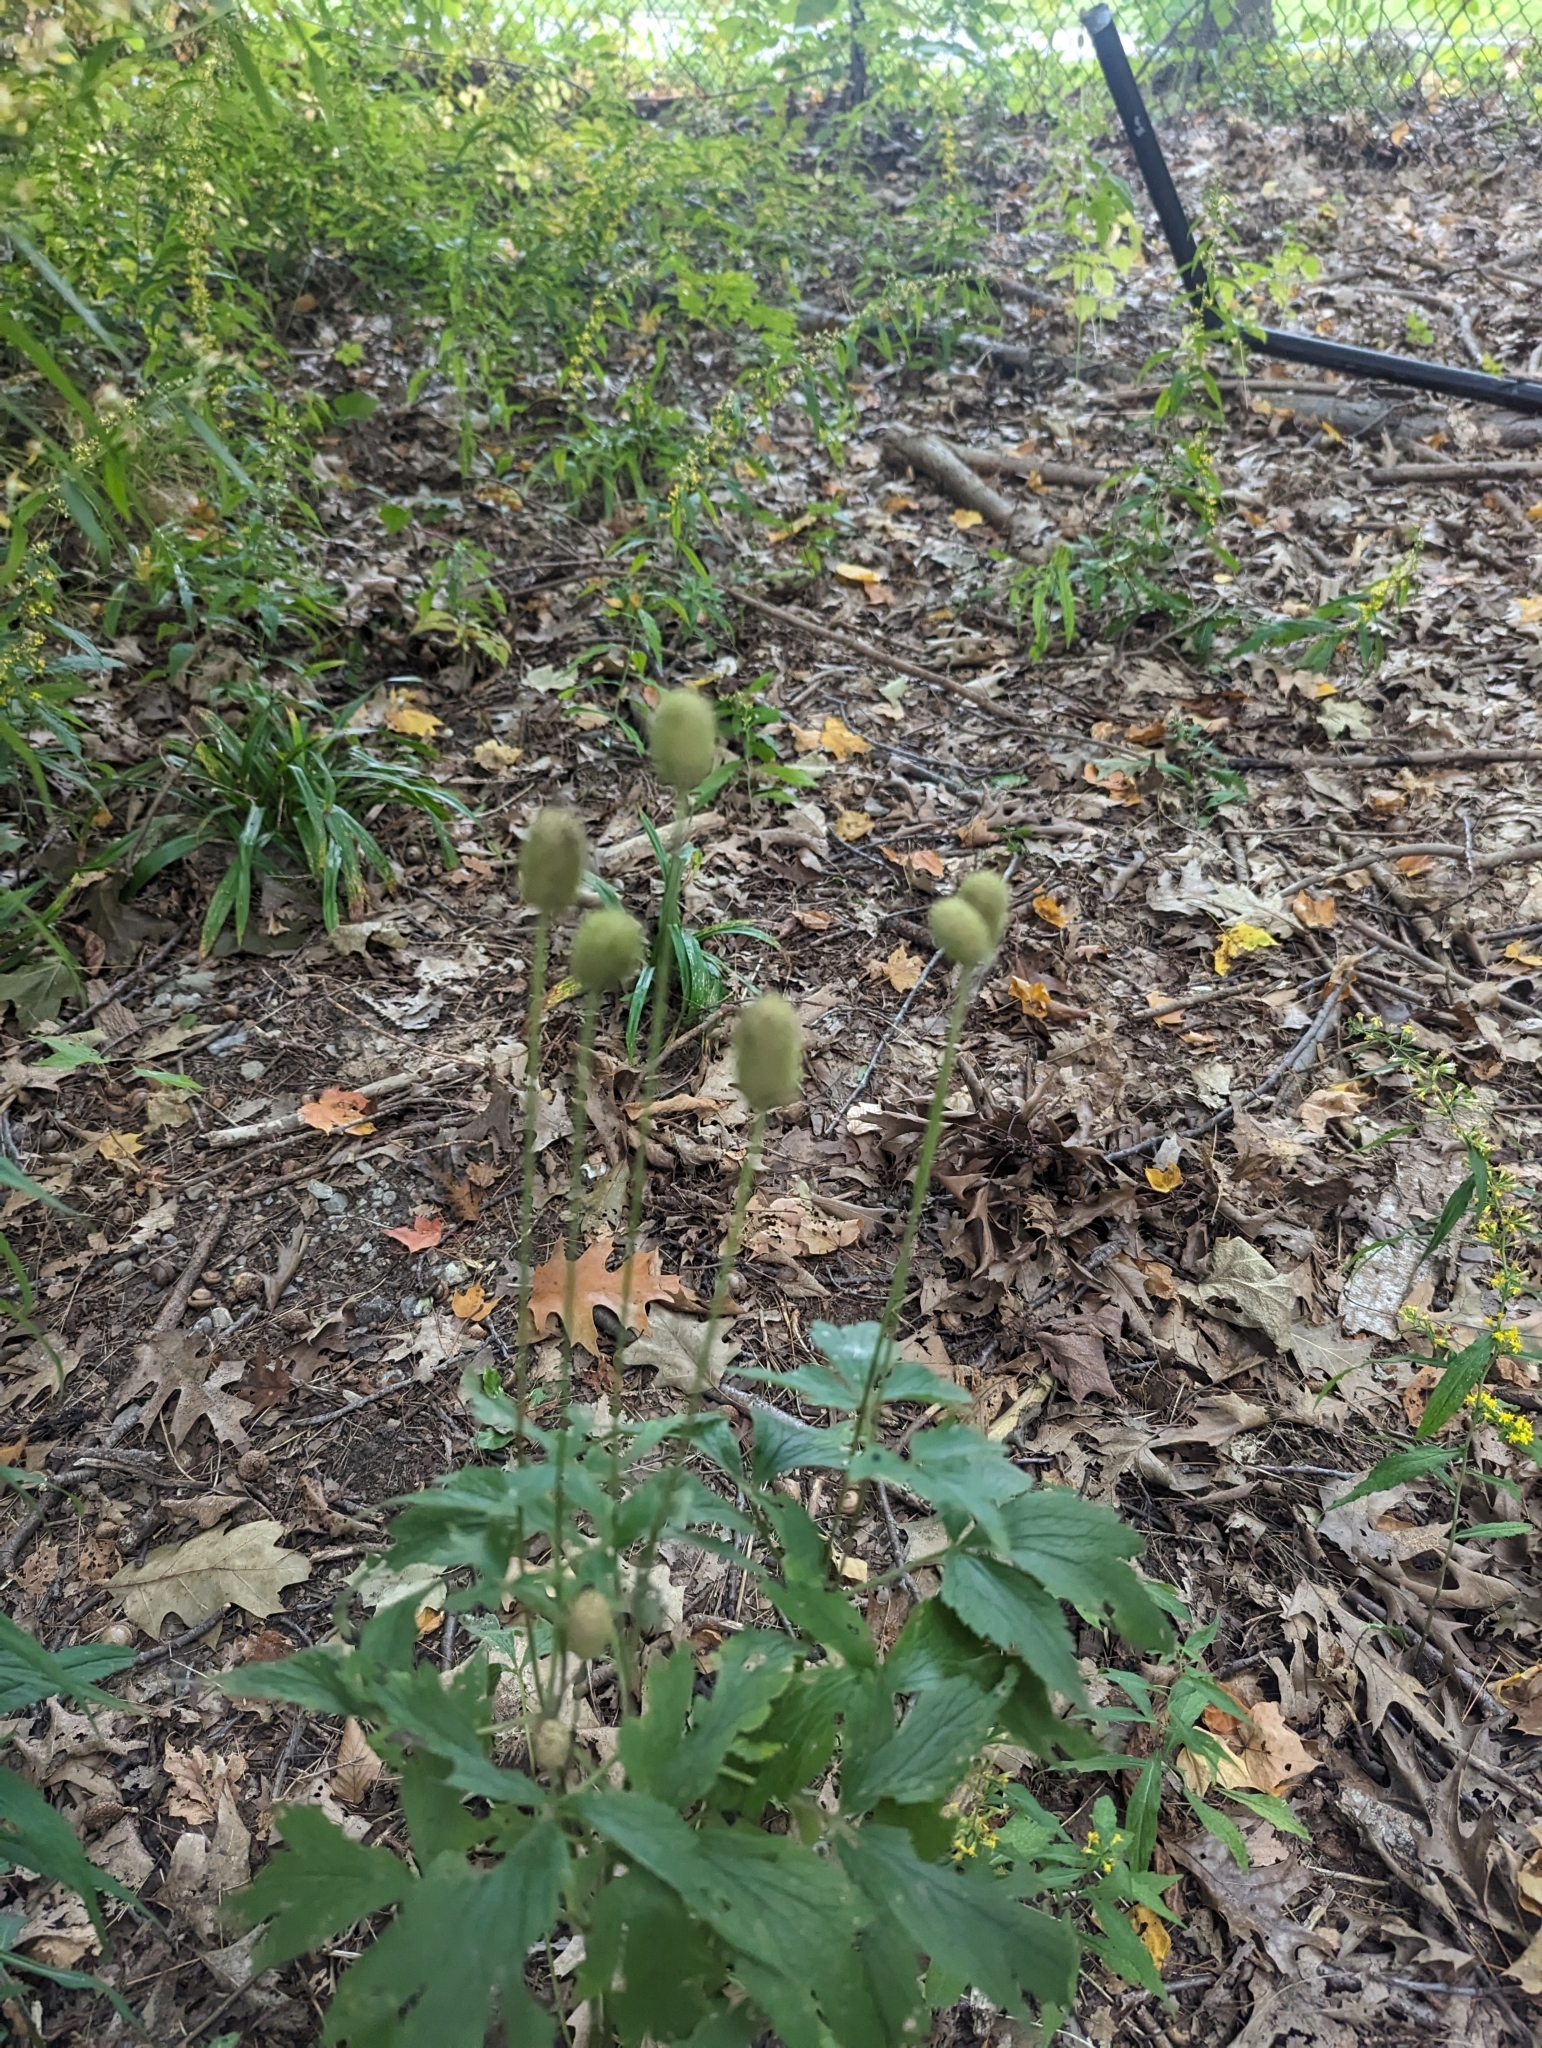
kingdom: Plantae
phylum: Tracheophyta
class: Magnoliopsida
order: Ranunculales
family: Ranunculaceae
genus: Anemone
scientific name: Anemone virginiana
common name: Tall anemone
